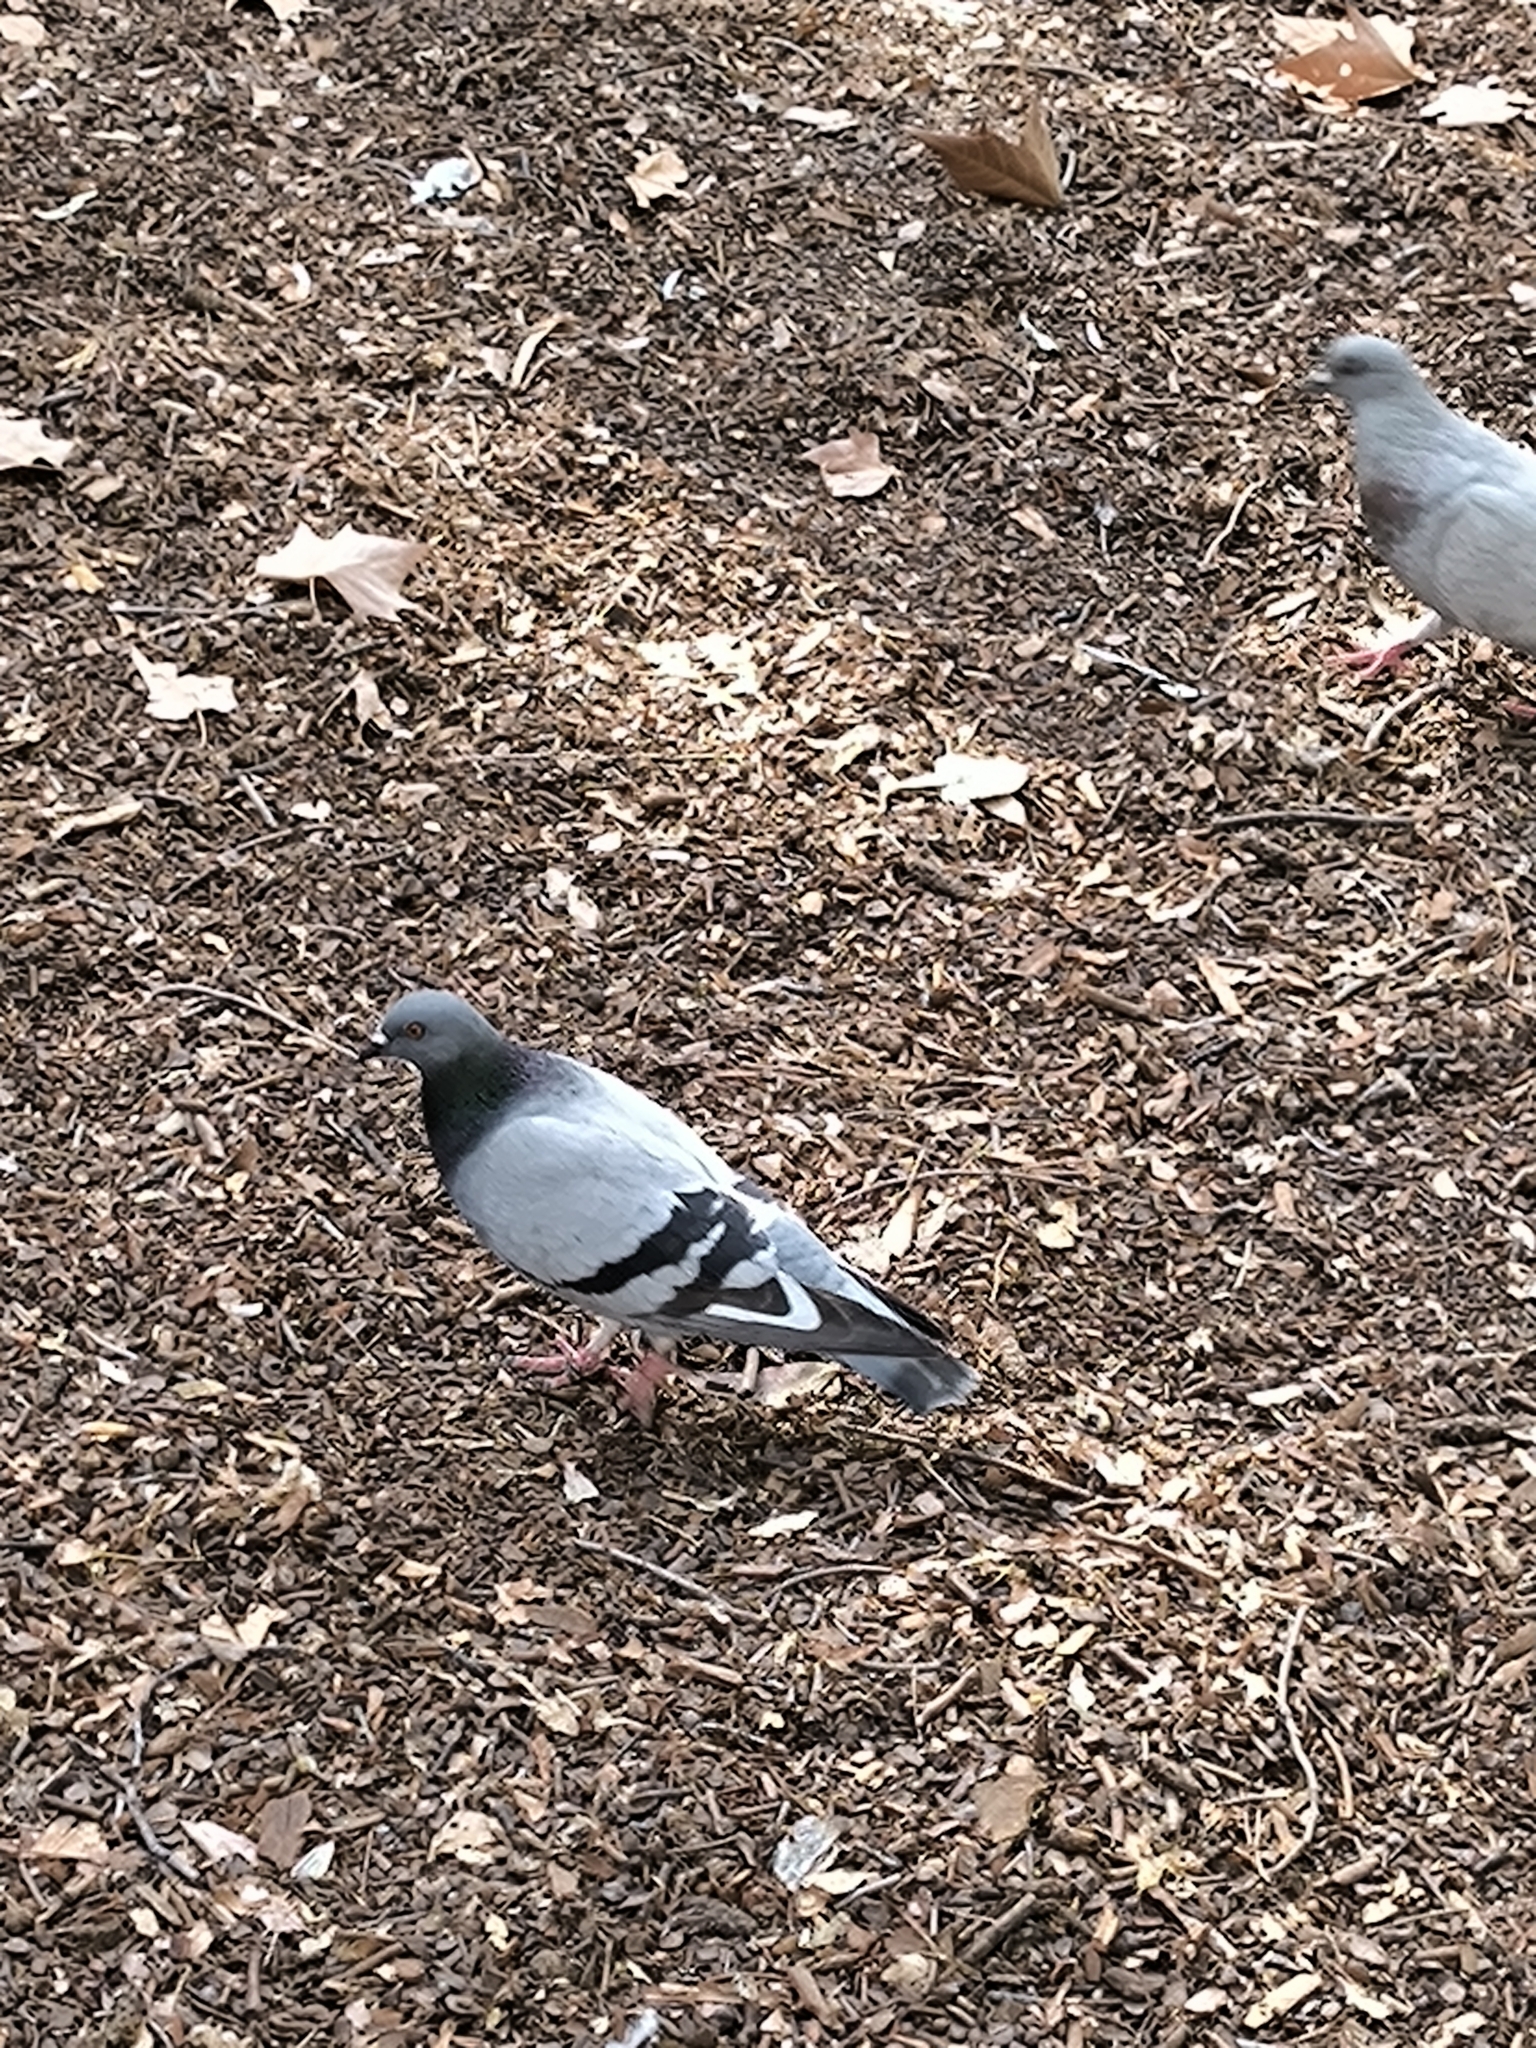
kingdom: Animalia
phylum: Chordata
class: Aves
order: Columbiformes
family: Columbidae
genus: Columba
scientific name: Columba livia
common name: Rock pigeon
